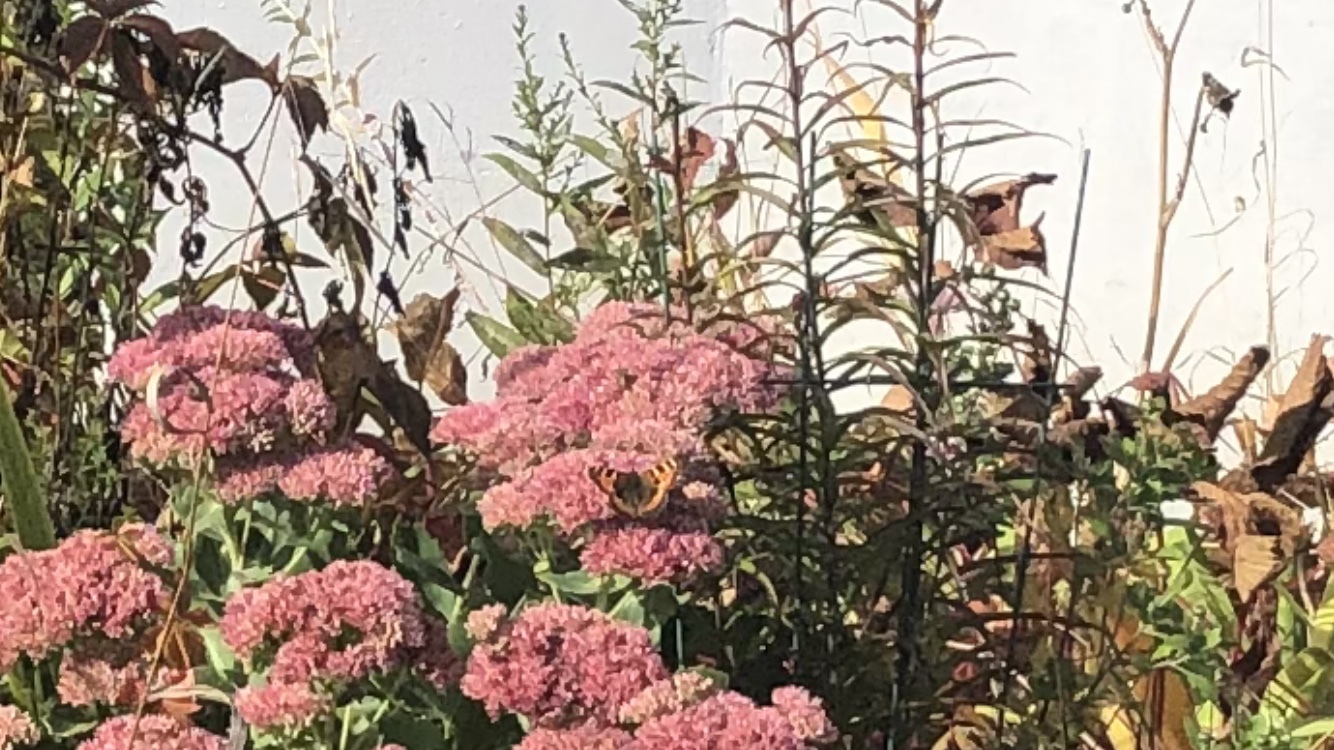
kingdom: Animalia
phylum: Arthropoda
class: Insecta
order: Lepidoptera
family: Nymphalidae
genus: Aglais
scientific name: Aglais urticae
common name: Small tortoiseshell
